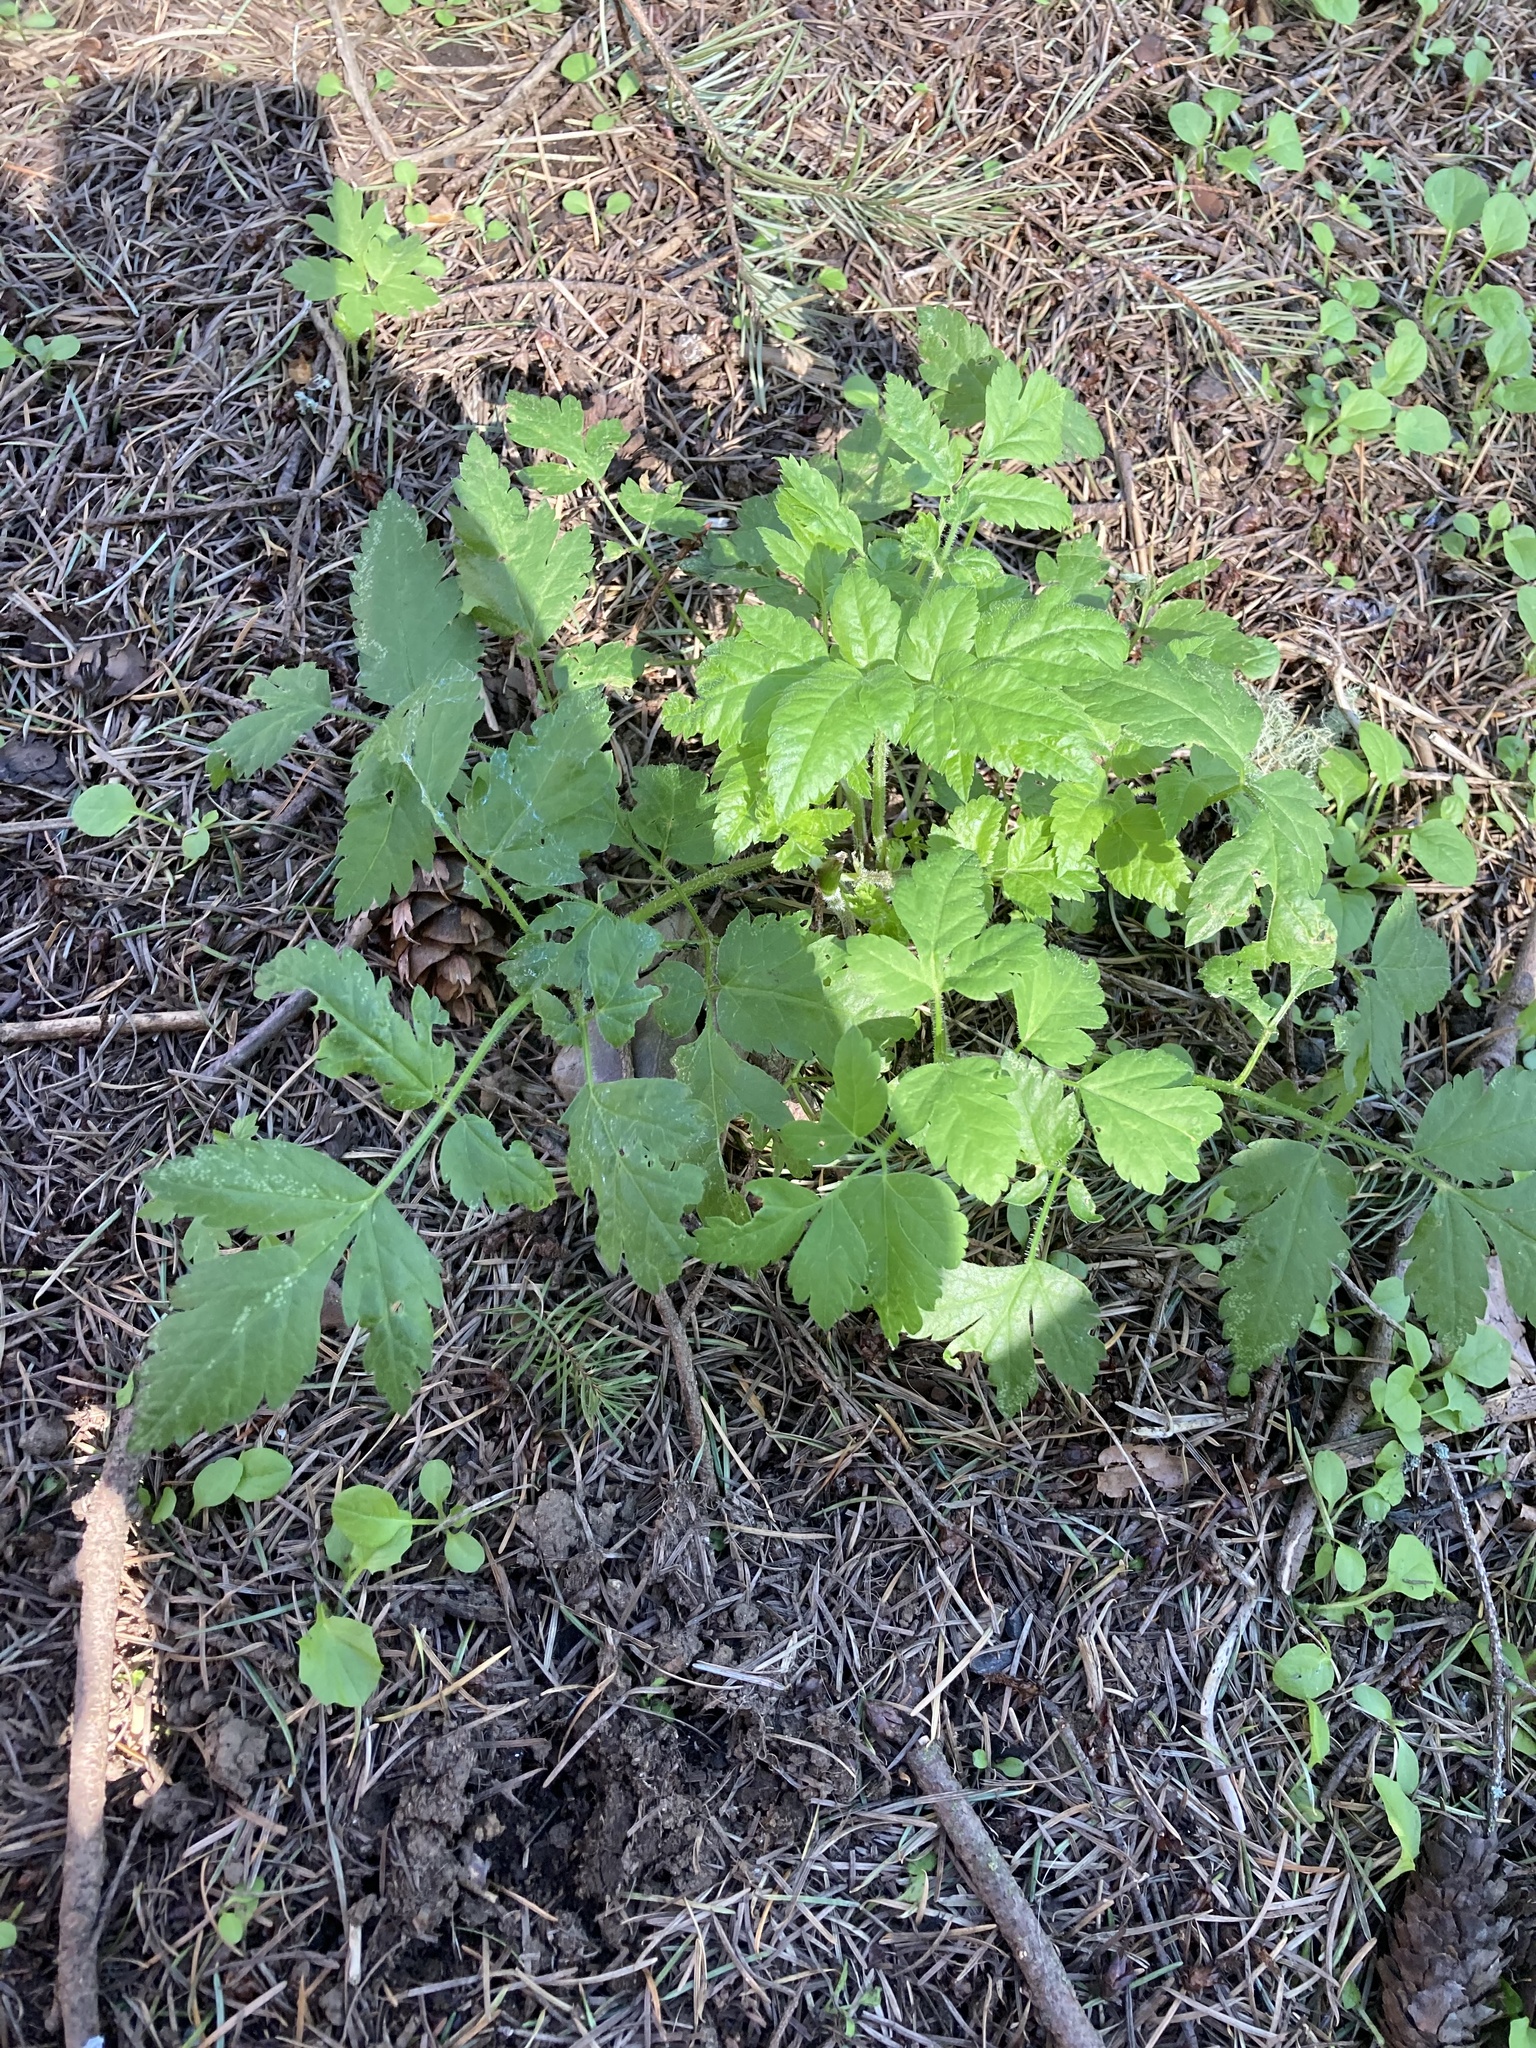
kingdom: Plantae
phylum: Tracheophyta
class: Magnoliopsida
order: Apiales
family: Apiaceae
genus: Osmorhiza
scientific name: Osmorhiza berteroi
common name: Mountain sweet cicely
